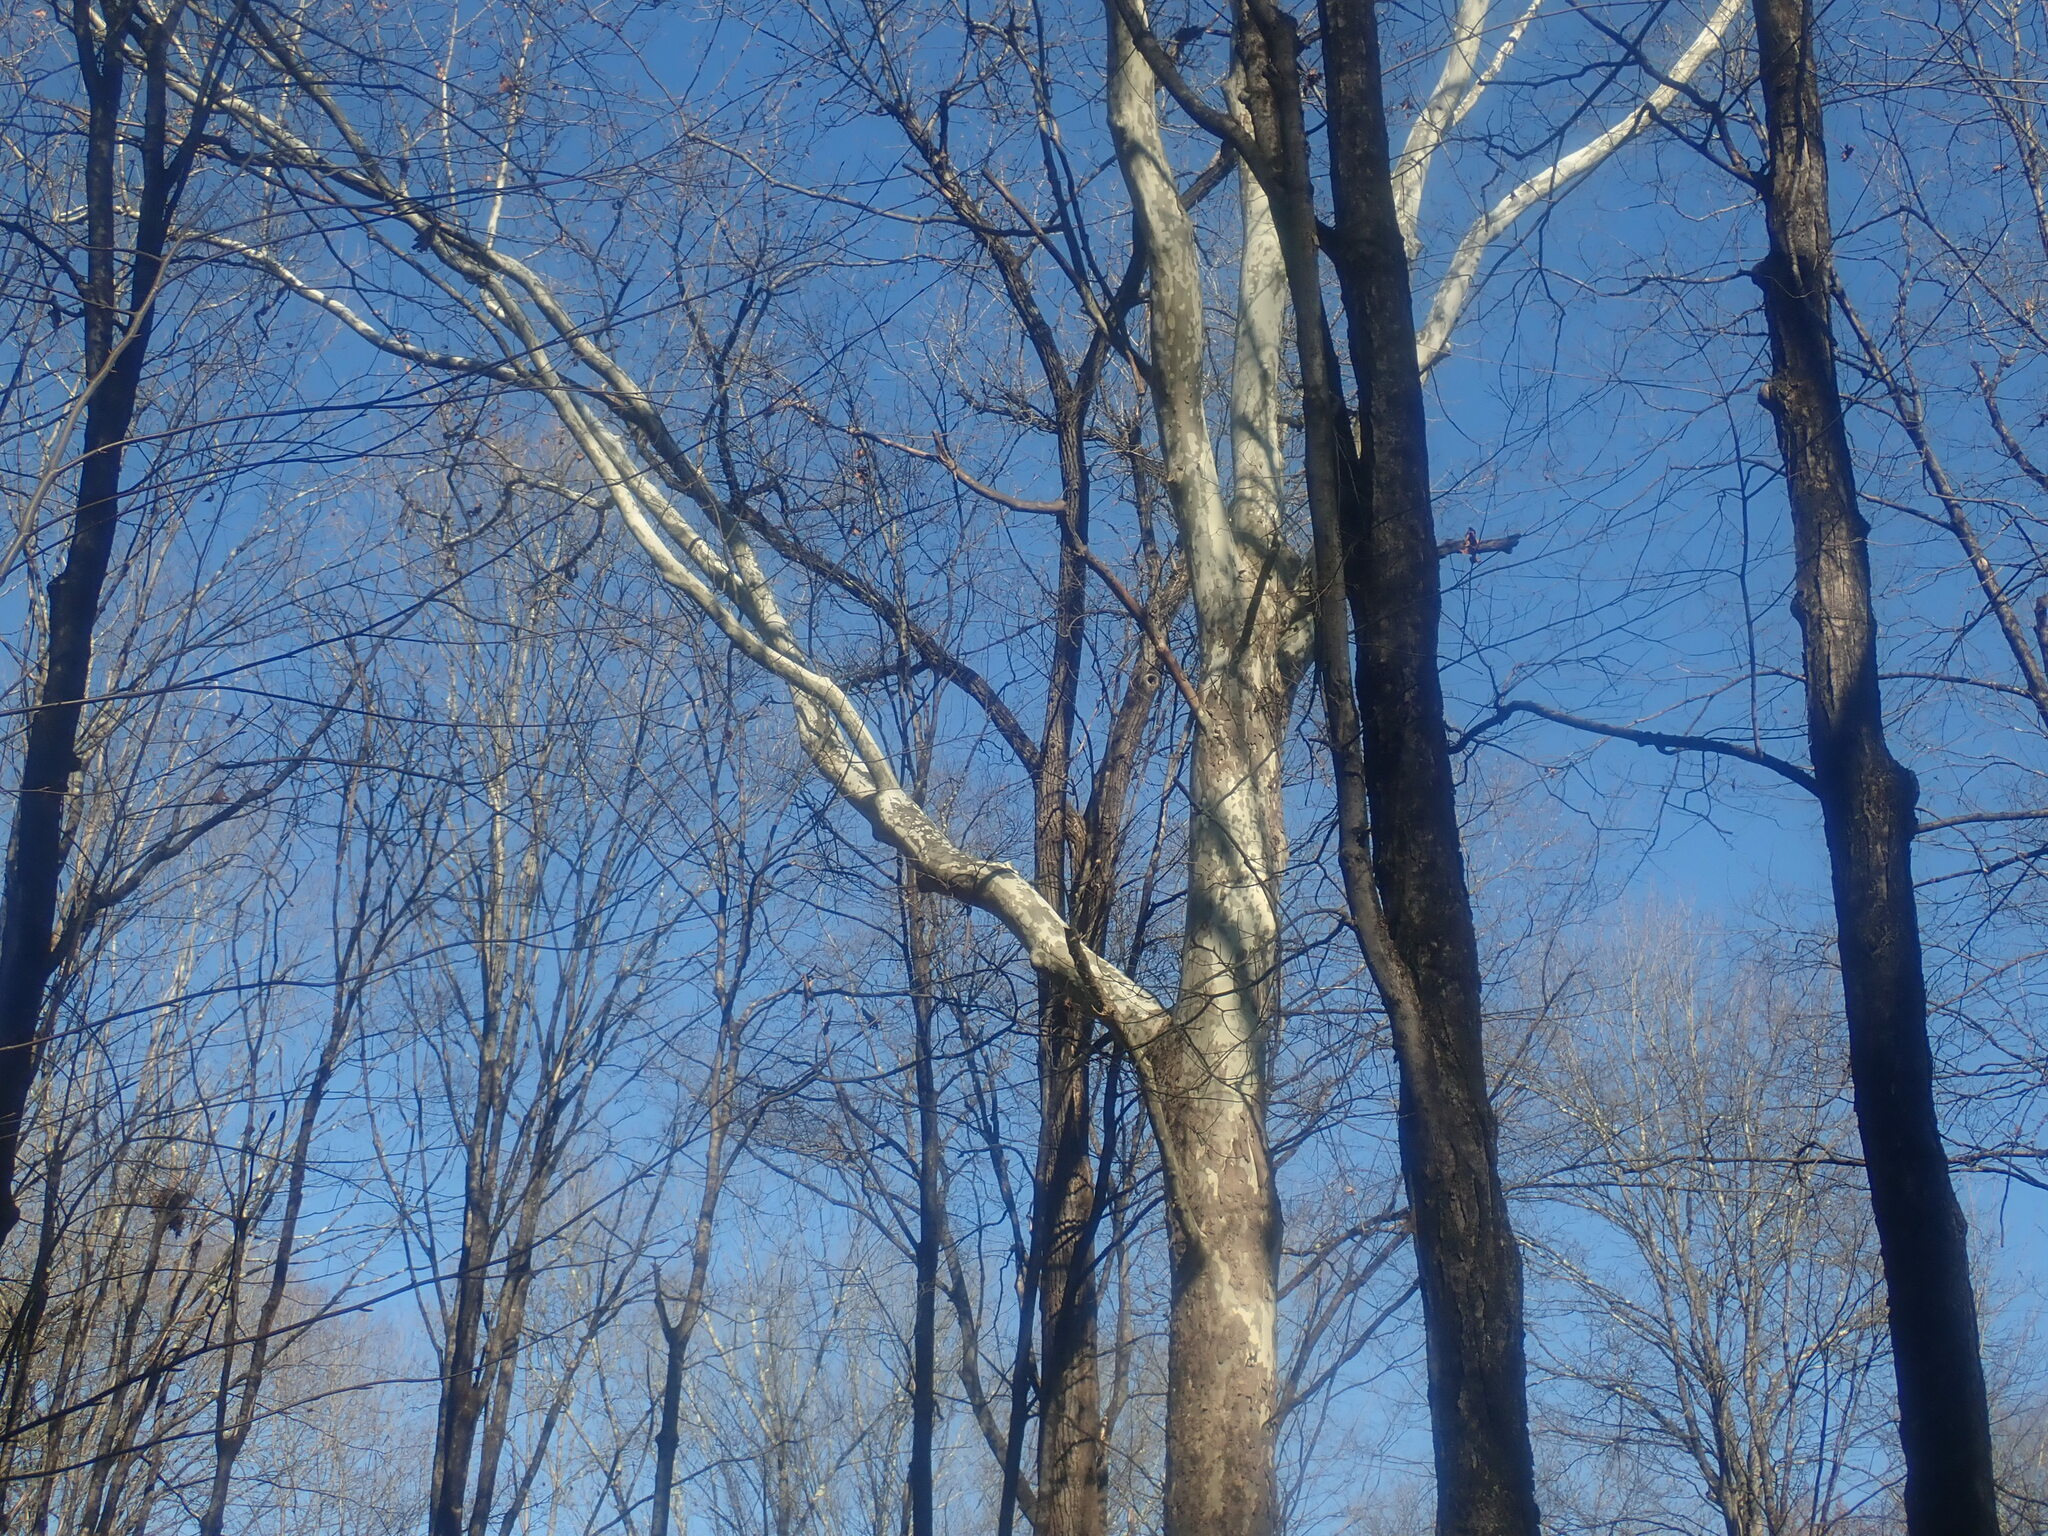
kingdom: Plantae
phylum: Tracheophyta
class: Magnoliopsida
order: Proteales
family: Platanaceae
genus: Platanus
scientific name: Platanus occidentalis
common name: American sycamore
